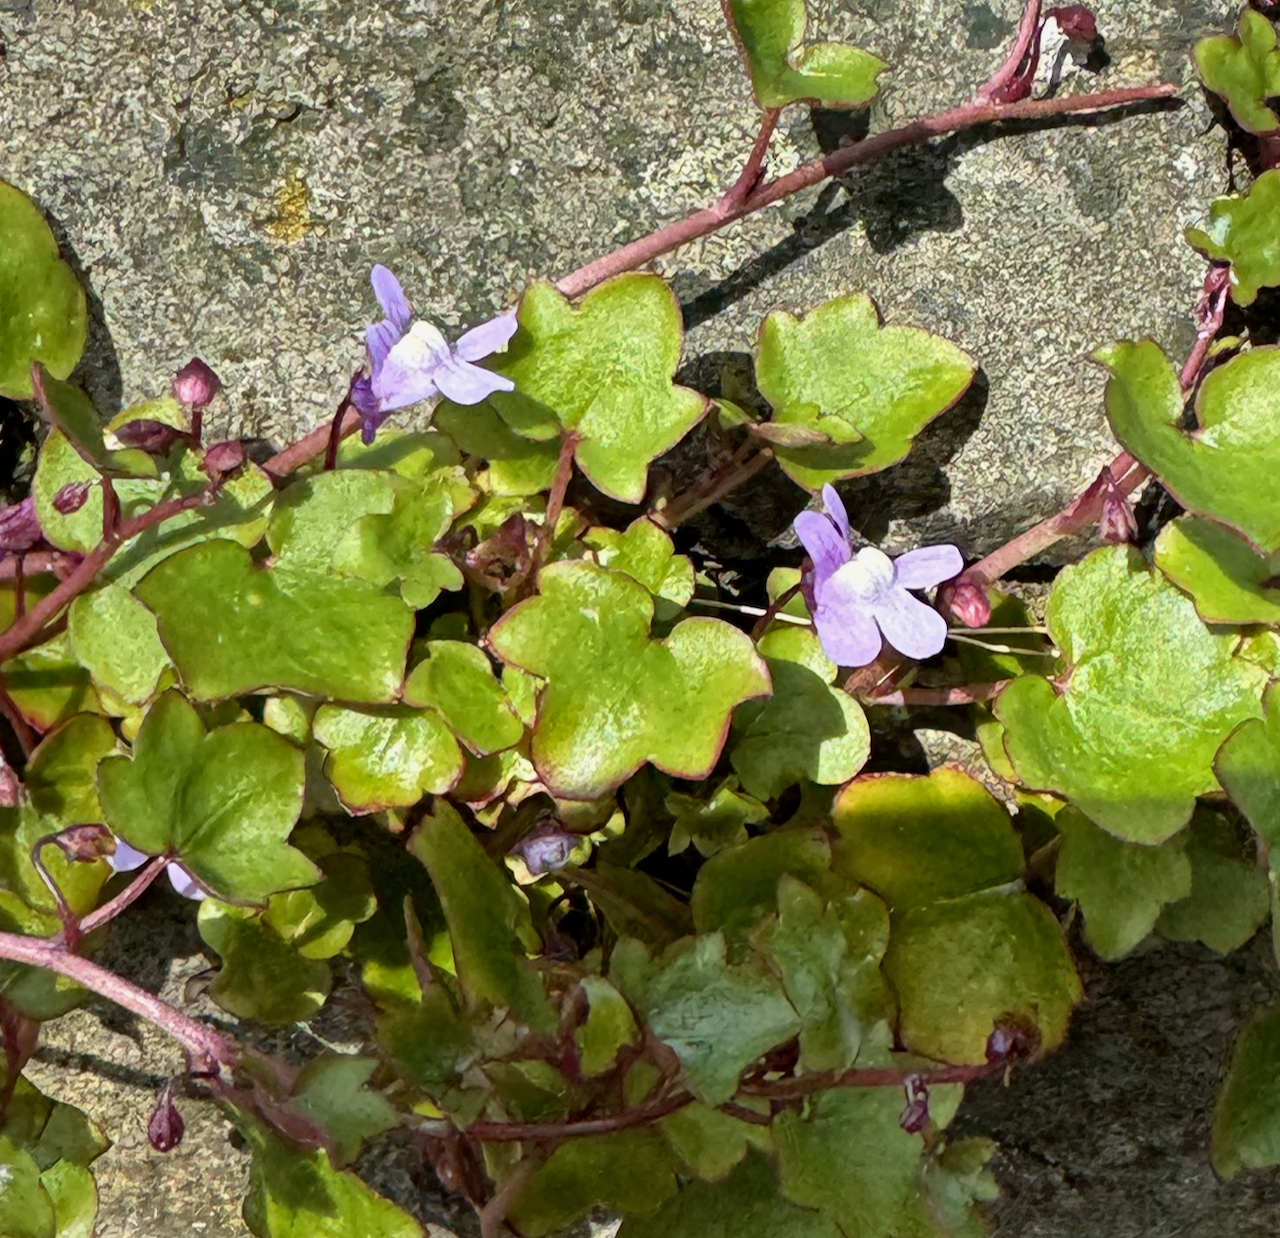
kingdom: Plantae
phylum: Tracheophyta
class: Magnoliopsida
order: Lamiales
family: Plantaginaceae
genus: Cymbalaria
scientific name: Cymbalaria muralis
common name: Ivy-leaved toadflax
